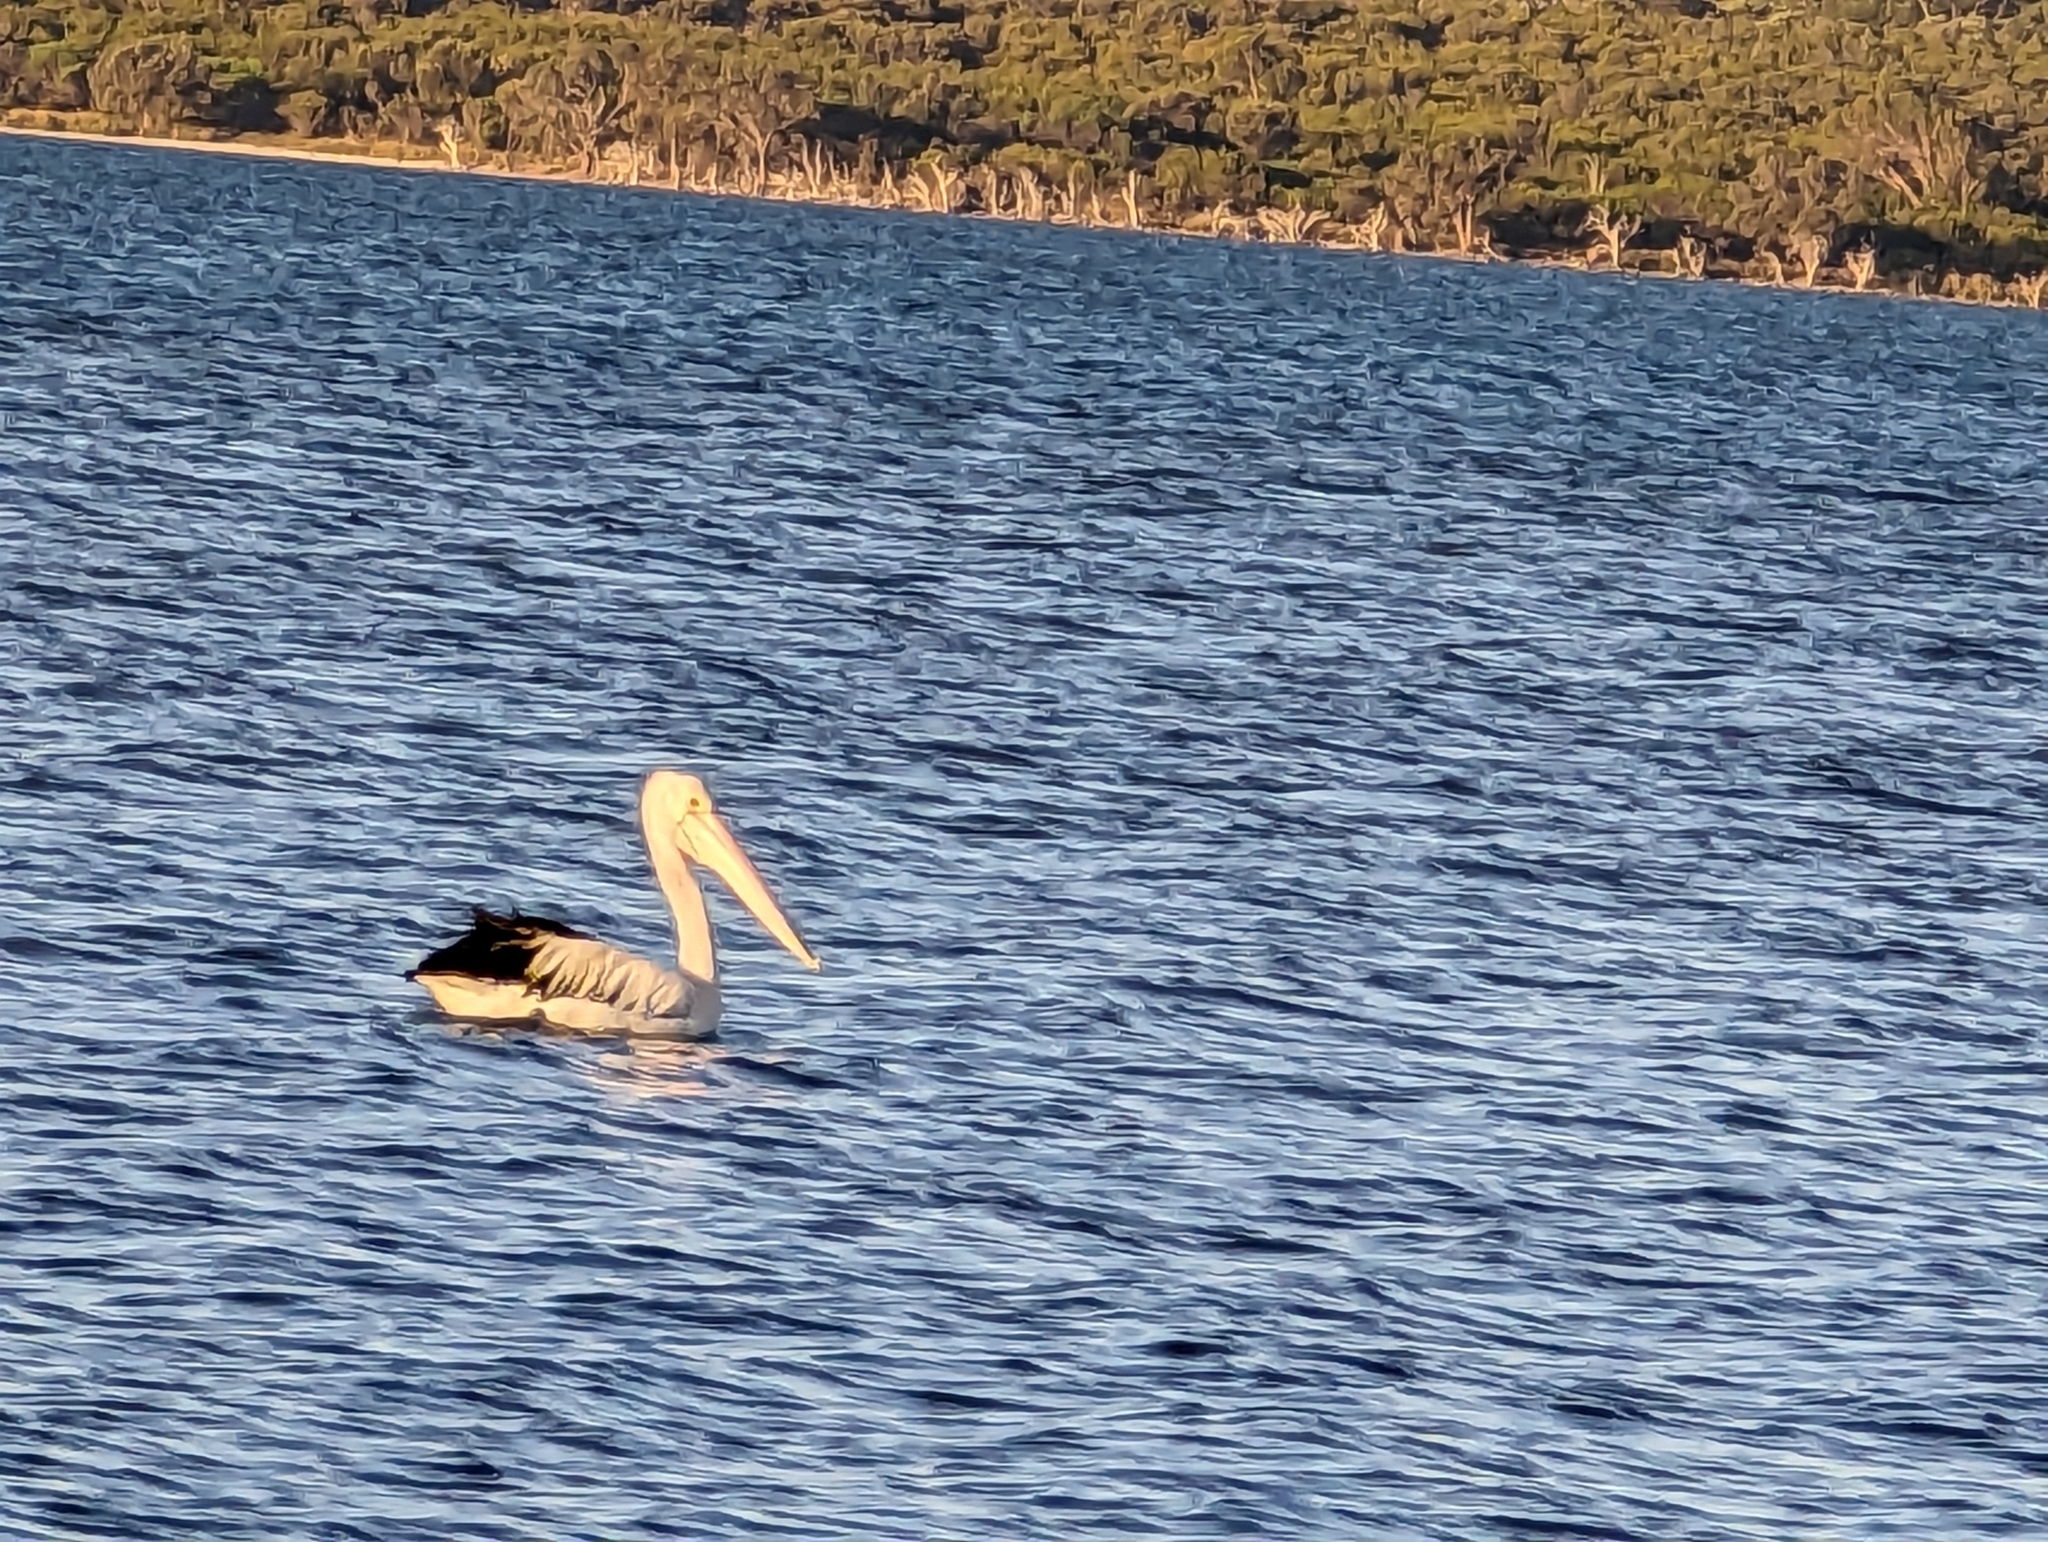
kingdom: Animalia
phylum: Chordata
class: Aves
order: Pelecaniformes
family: Pelecanidae
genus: Pelecanus
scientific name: Pelecanus conspicillatus
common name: Australian pelican
